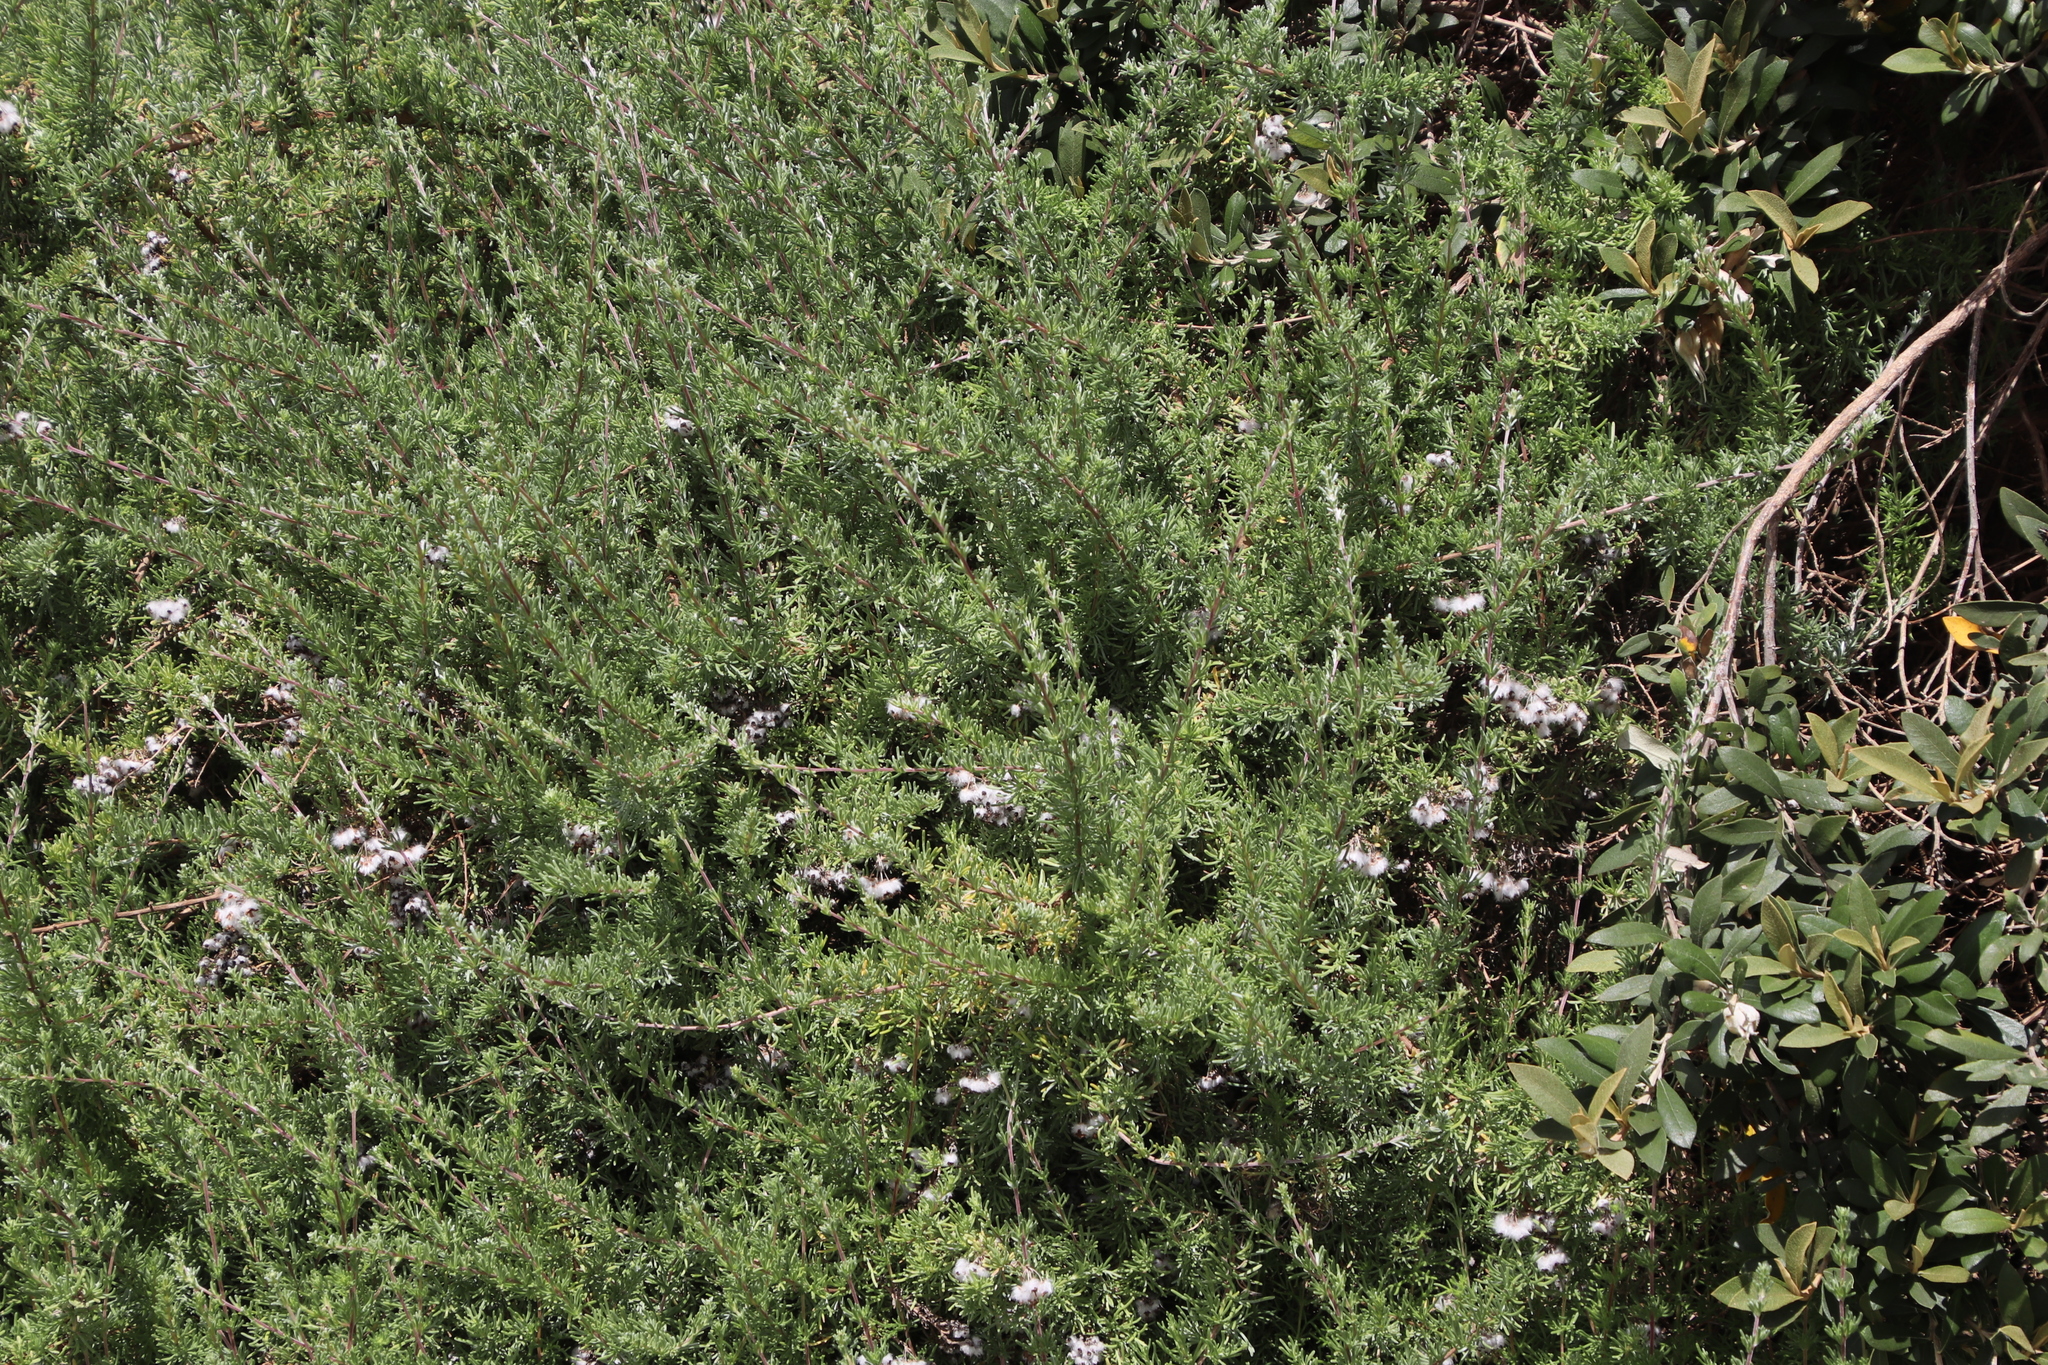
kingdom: Plantae
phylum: Tracheophyta
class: Magnoliopsida
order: Asterales
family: Asteraceae
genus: Eriocephalus
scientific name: Eriocephalus africanus
